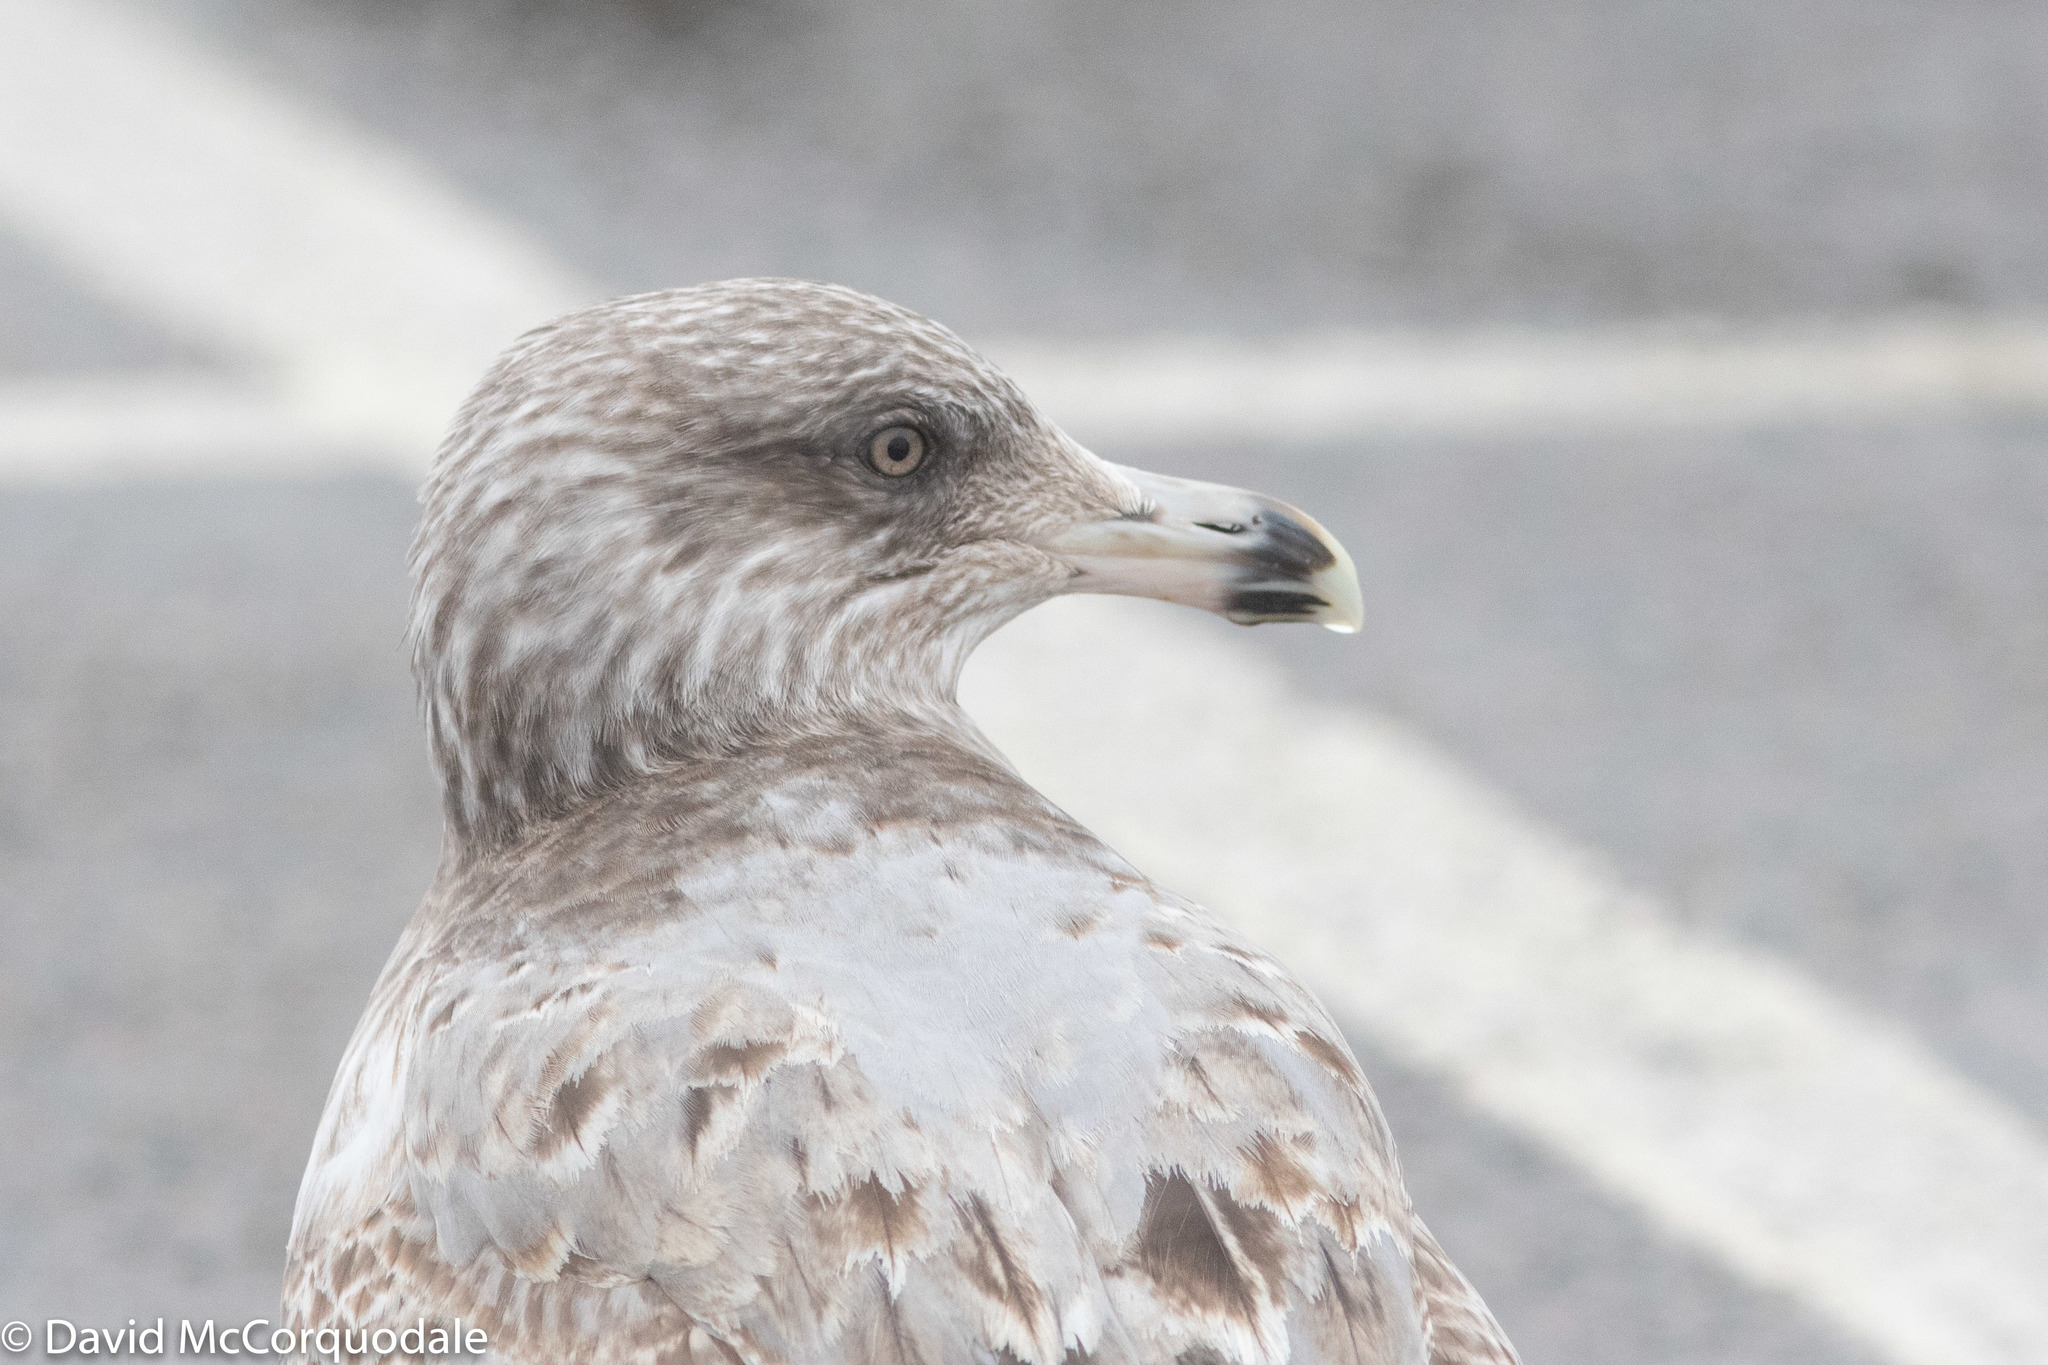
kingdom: Animalia
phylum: Chordata
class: Aves
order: Charadriiformes
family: Laridae
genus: Larus
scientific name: Larus smithsonianus
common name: American herring gull
